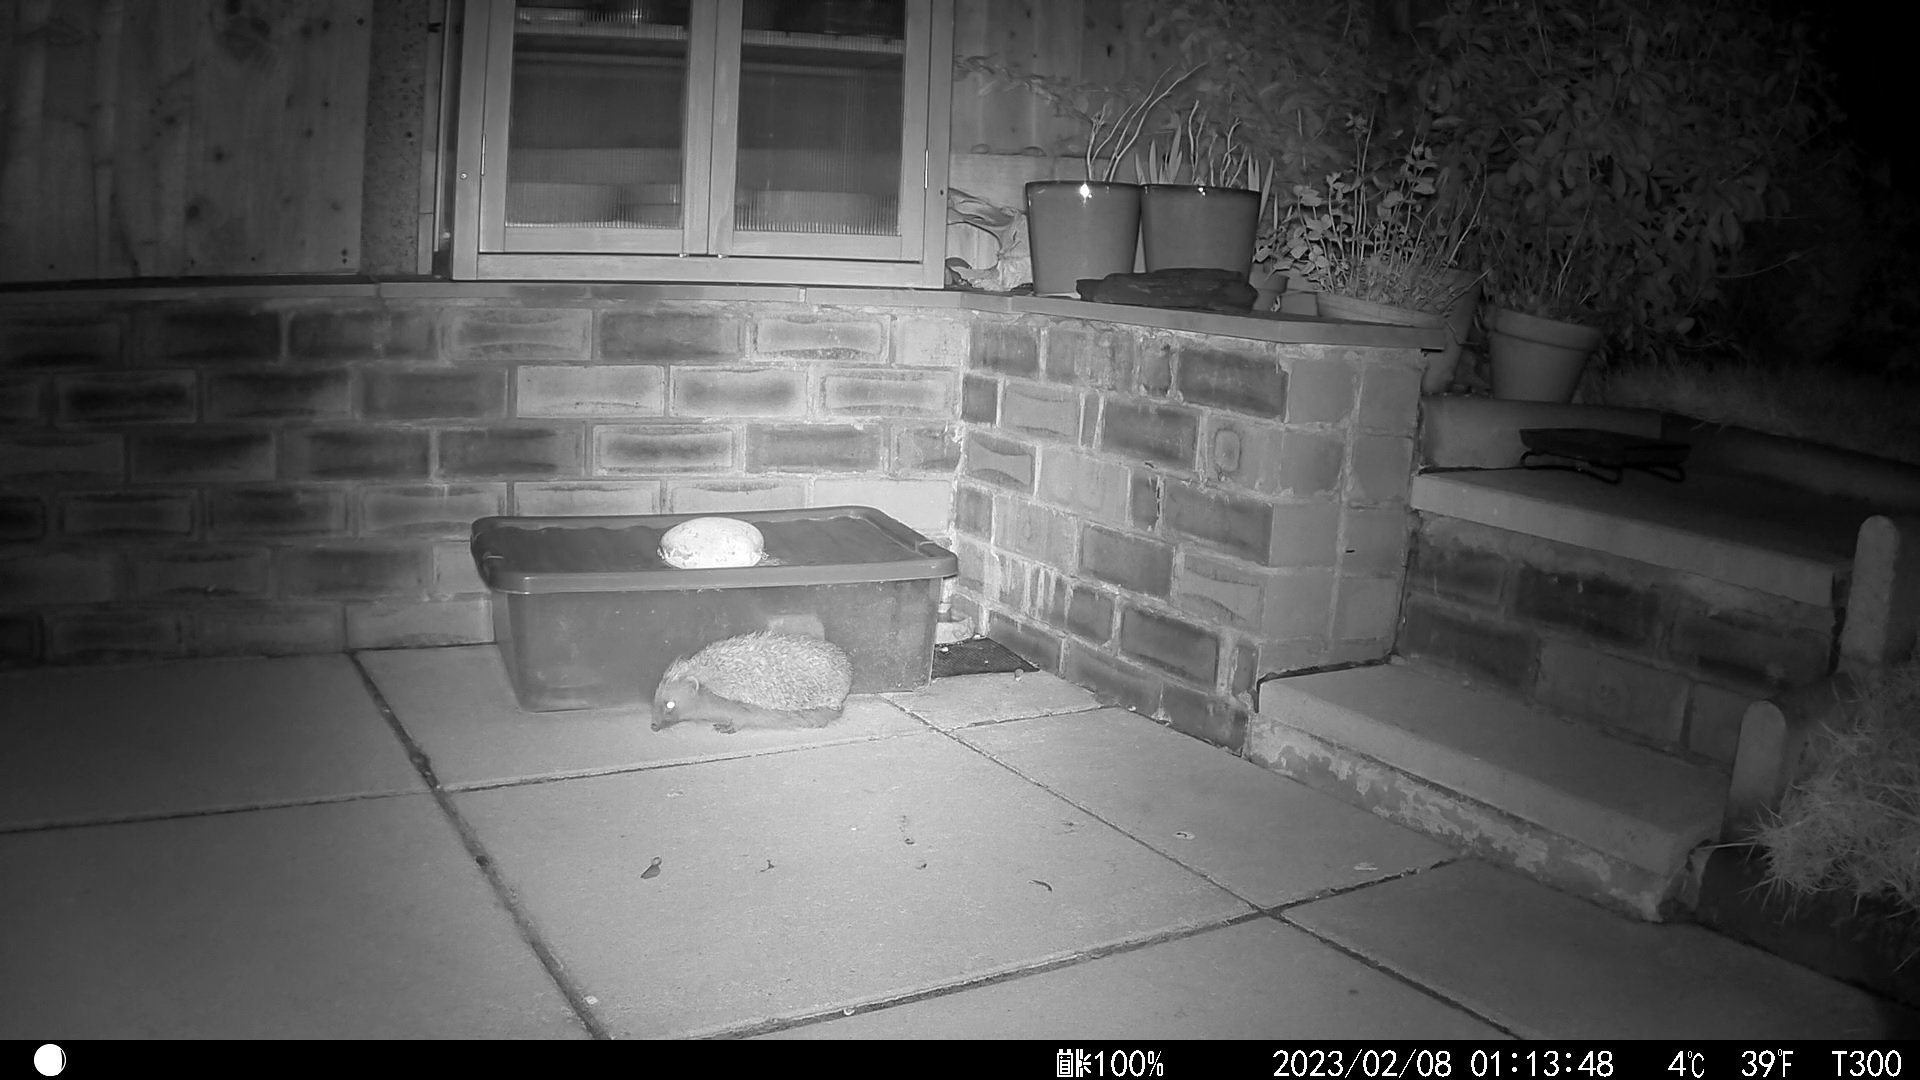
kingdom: Animalia
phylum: Chordata
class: Mammalia
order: Erinaceomorpha
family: Erinaceidae
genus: Erinaceus
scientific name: Erinaceus europaeus
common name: West european hedgehog
